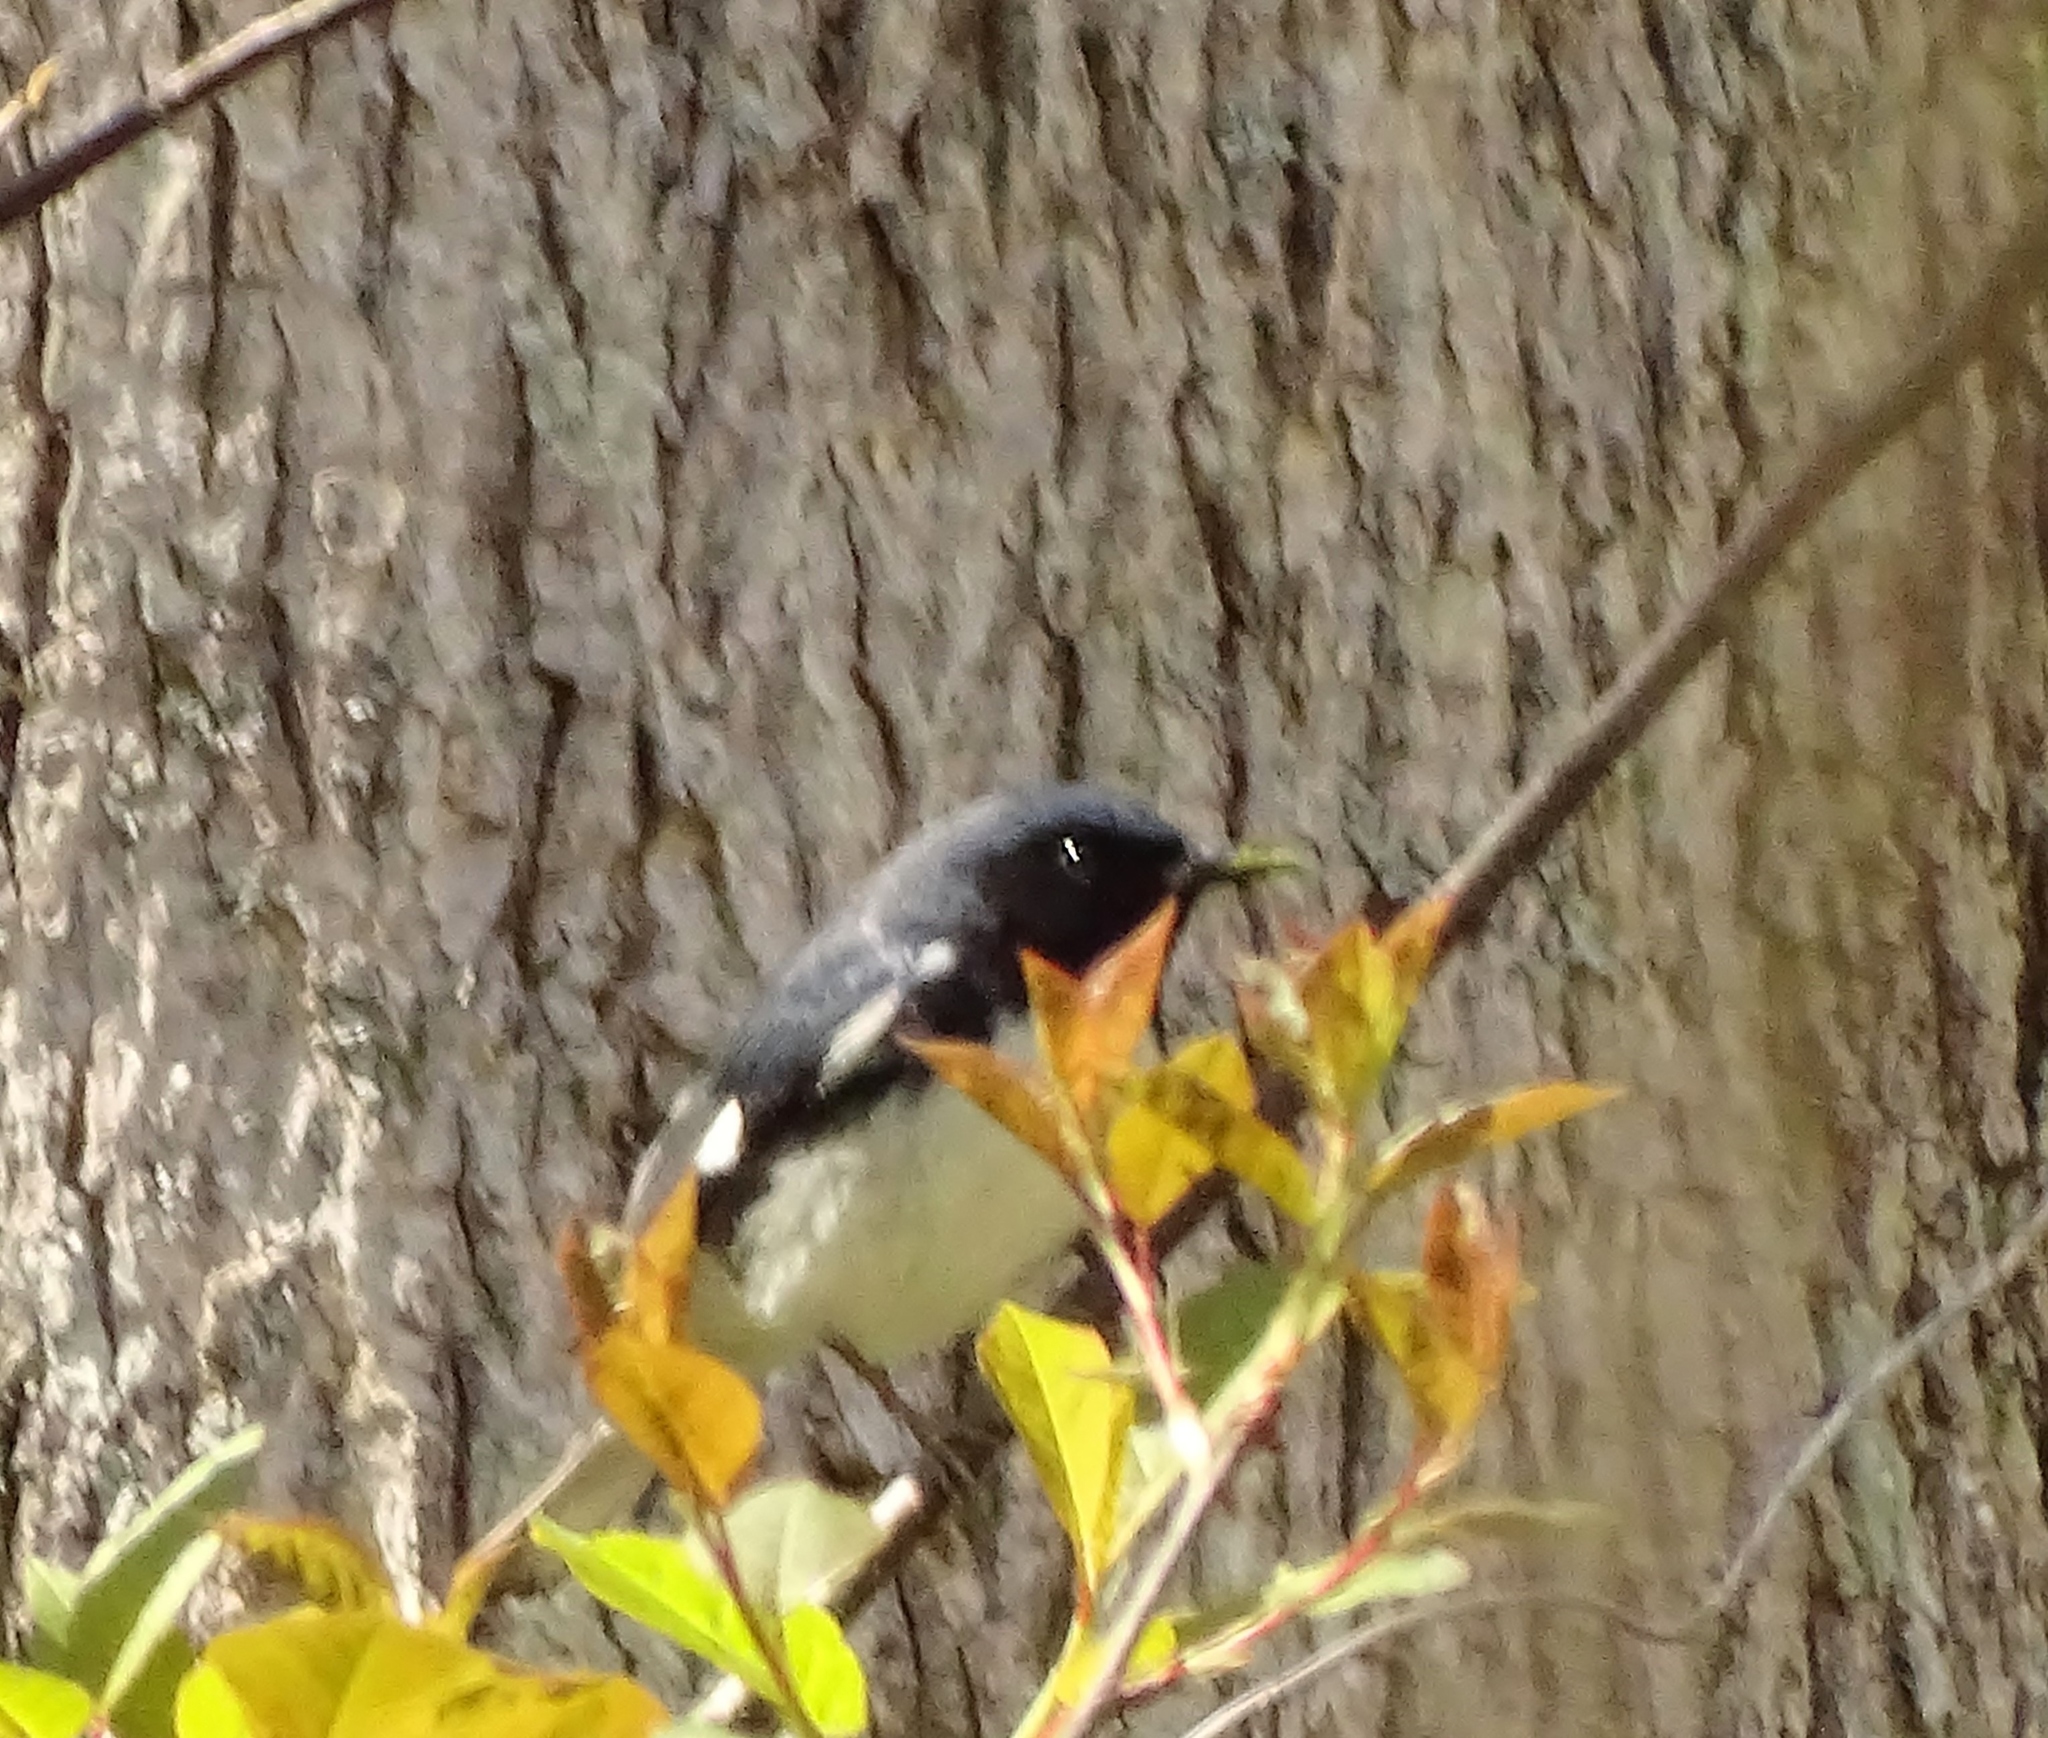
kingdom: Animalia
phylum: Chordata
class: Aves
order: Passeriformes
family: Parulidae
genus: Setophaga
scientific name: Setophaga caerulescens
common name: Black-throated blue warbler
